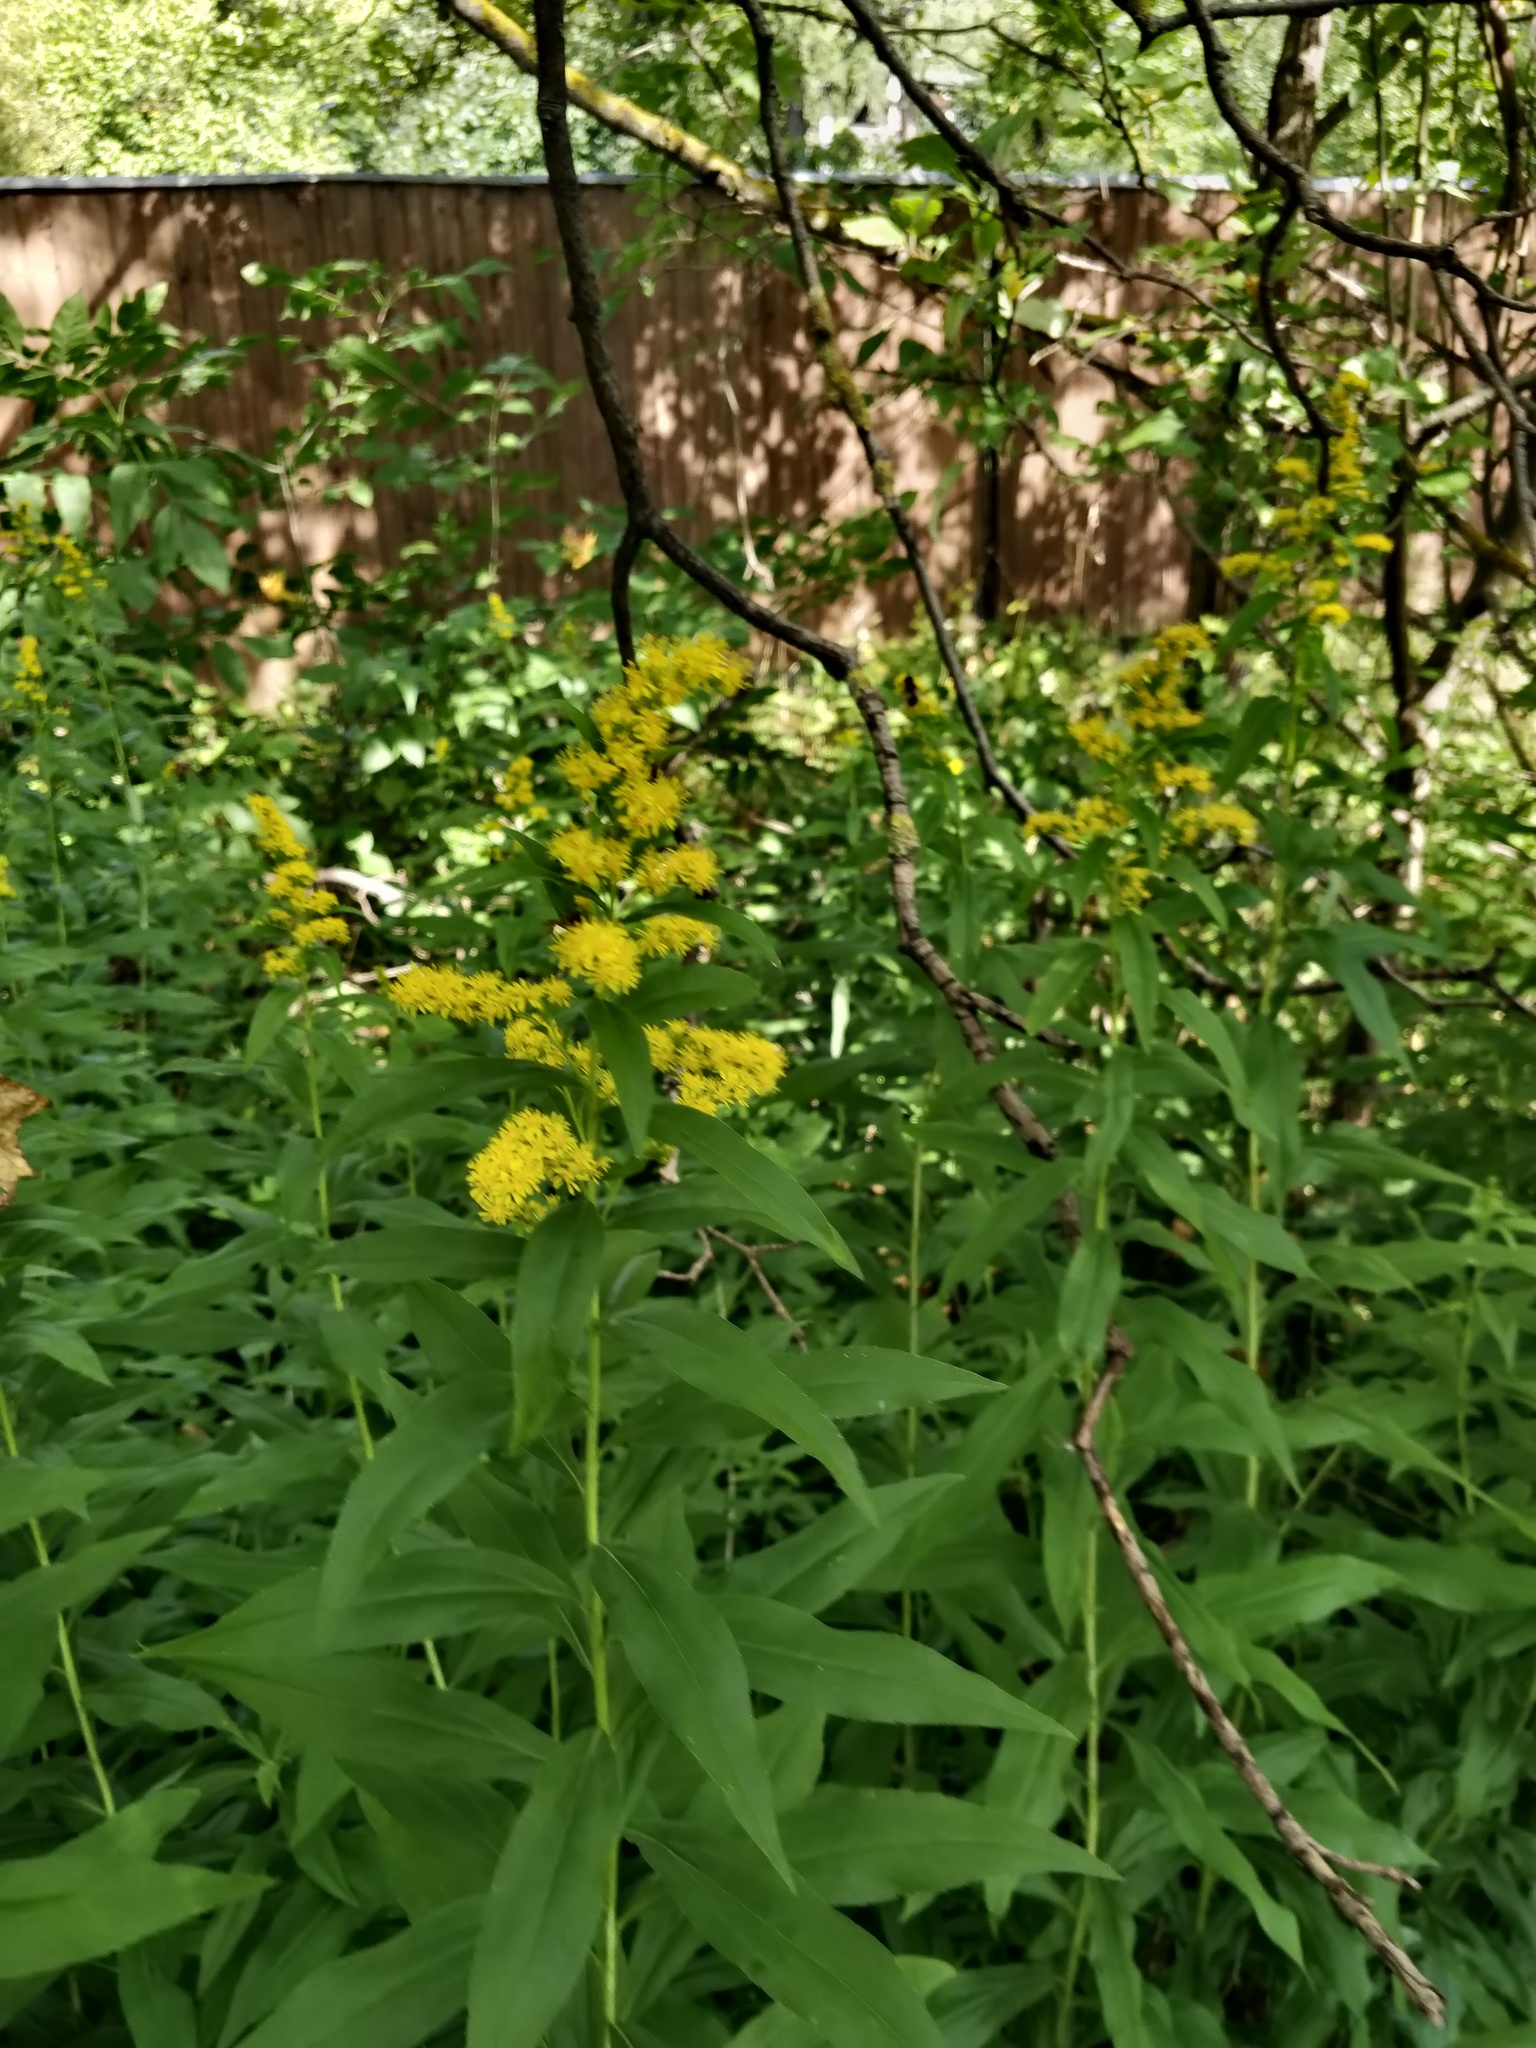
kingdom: Plantae
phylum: Tracheophyta
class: Magnoliopsida
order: Asterales
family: Asteraceae
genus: Solidago
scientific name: Solidago gigantea
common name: Giant goldenrod
